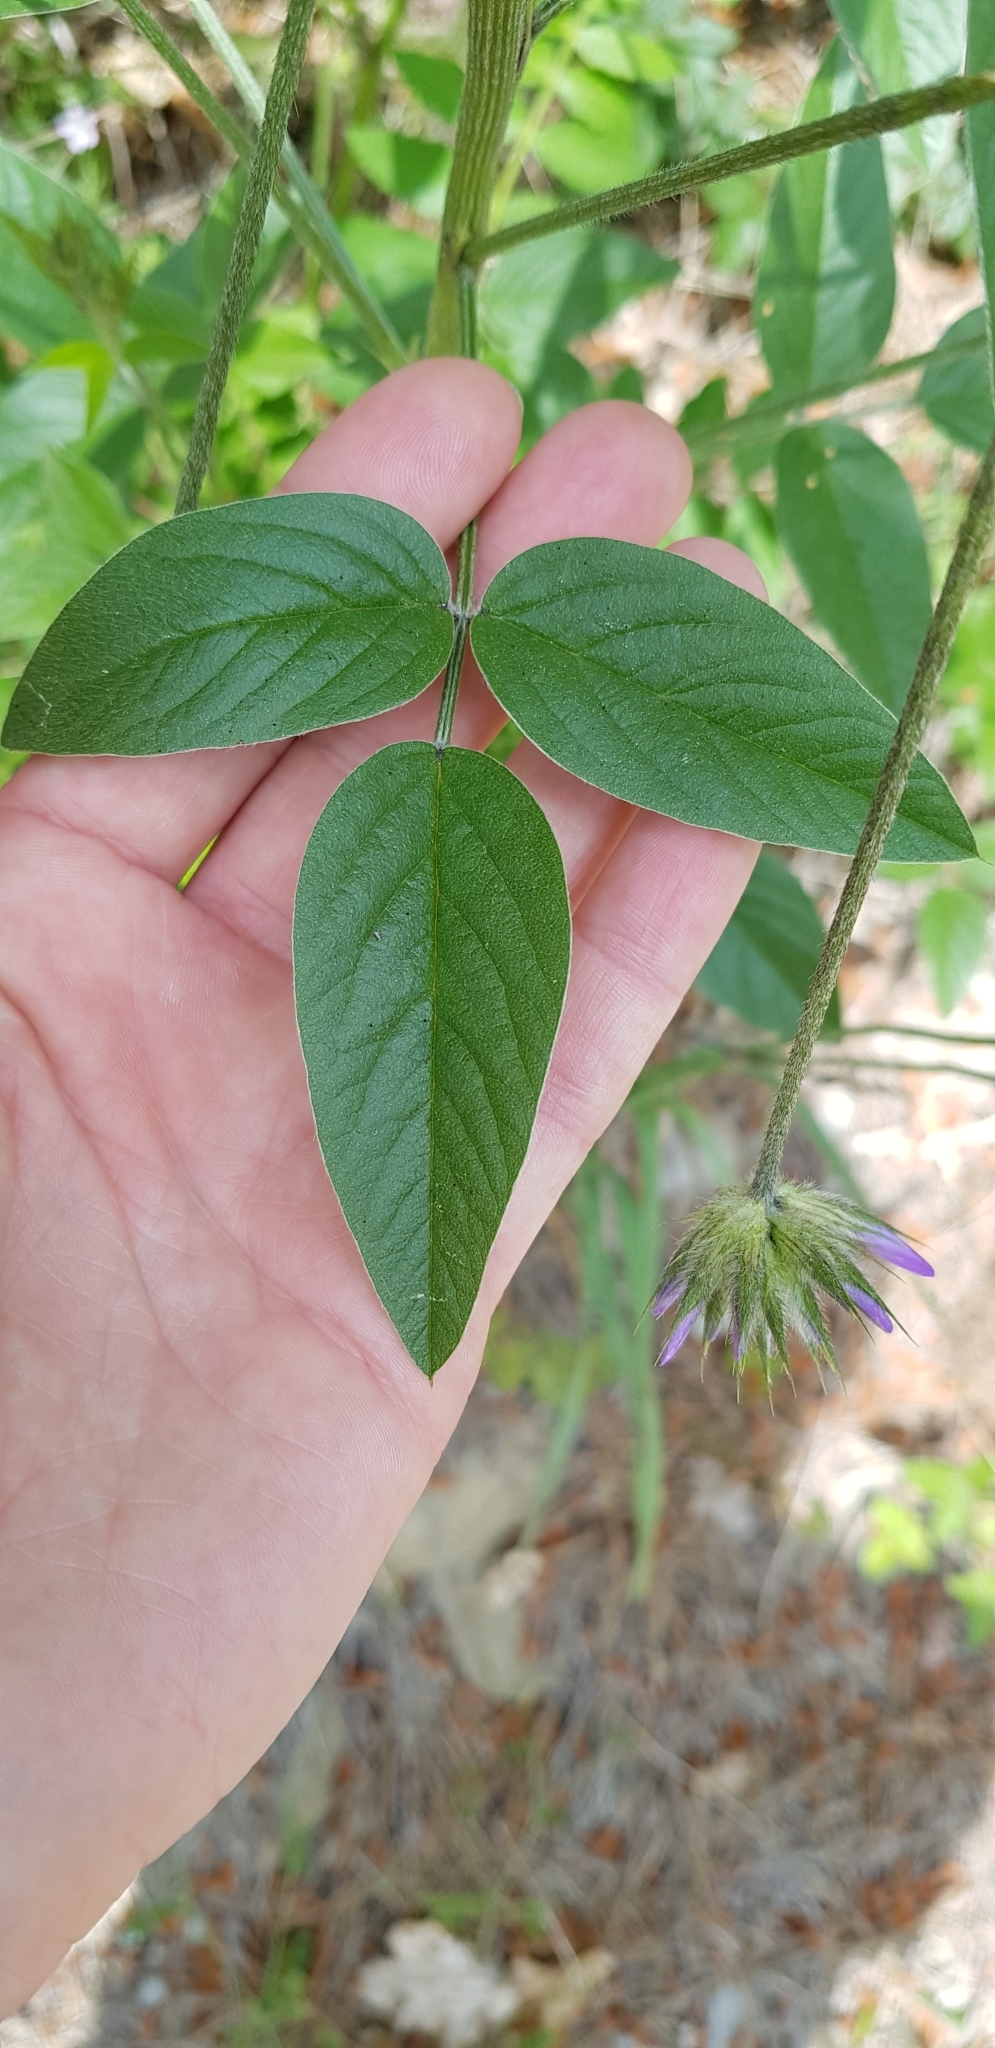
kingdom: Plantae
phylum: Tracheophyta
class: Magnoliopsida
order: Fabales
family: Fabaceae
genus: Bituminaria
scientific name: Bituminaria bituminosa
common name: Arabian pea
